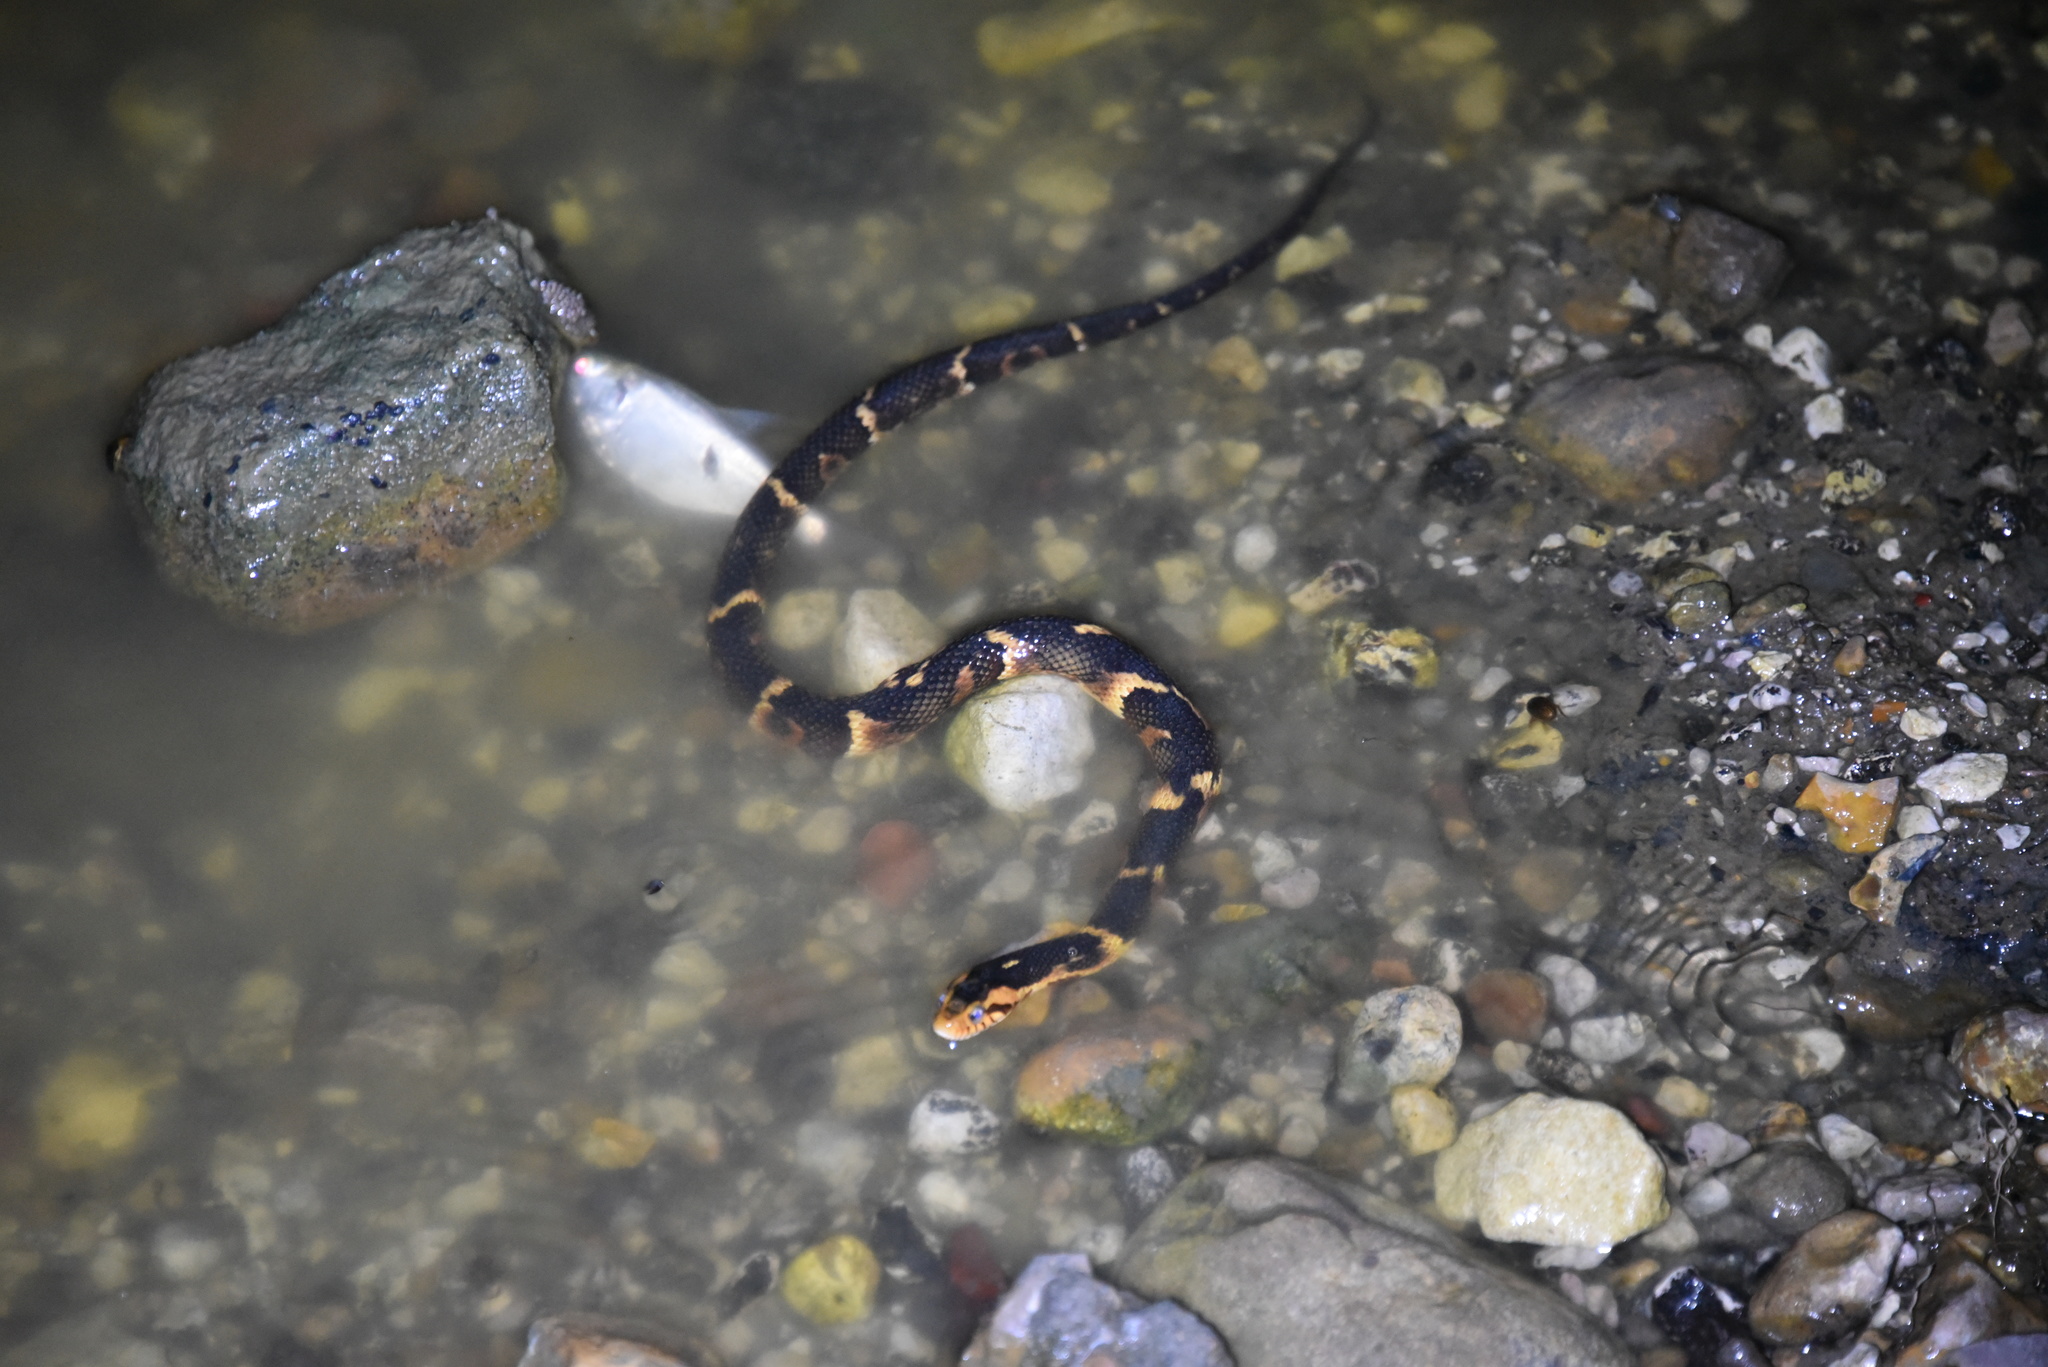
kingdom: Animalia
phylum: Chordata
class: Squamata
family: Colubridae
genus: Nerodia
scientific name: Nerodia fasciata
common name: Southern water snake
